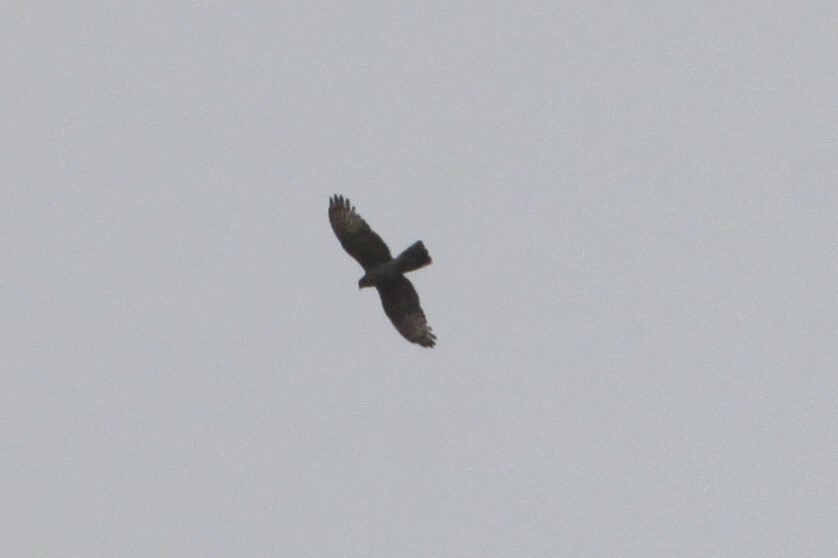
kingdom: Animalia
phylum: Chordata
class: Aves
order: Accipitriformes
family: Accipitridae
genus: Aviceda
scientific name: Aviceda cuculoides
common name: African cuckoo-hawk
